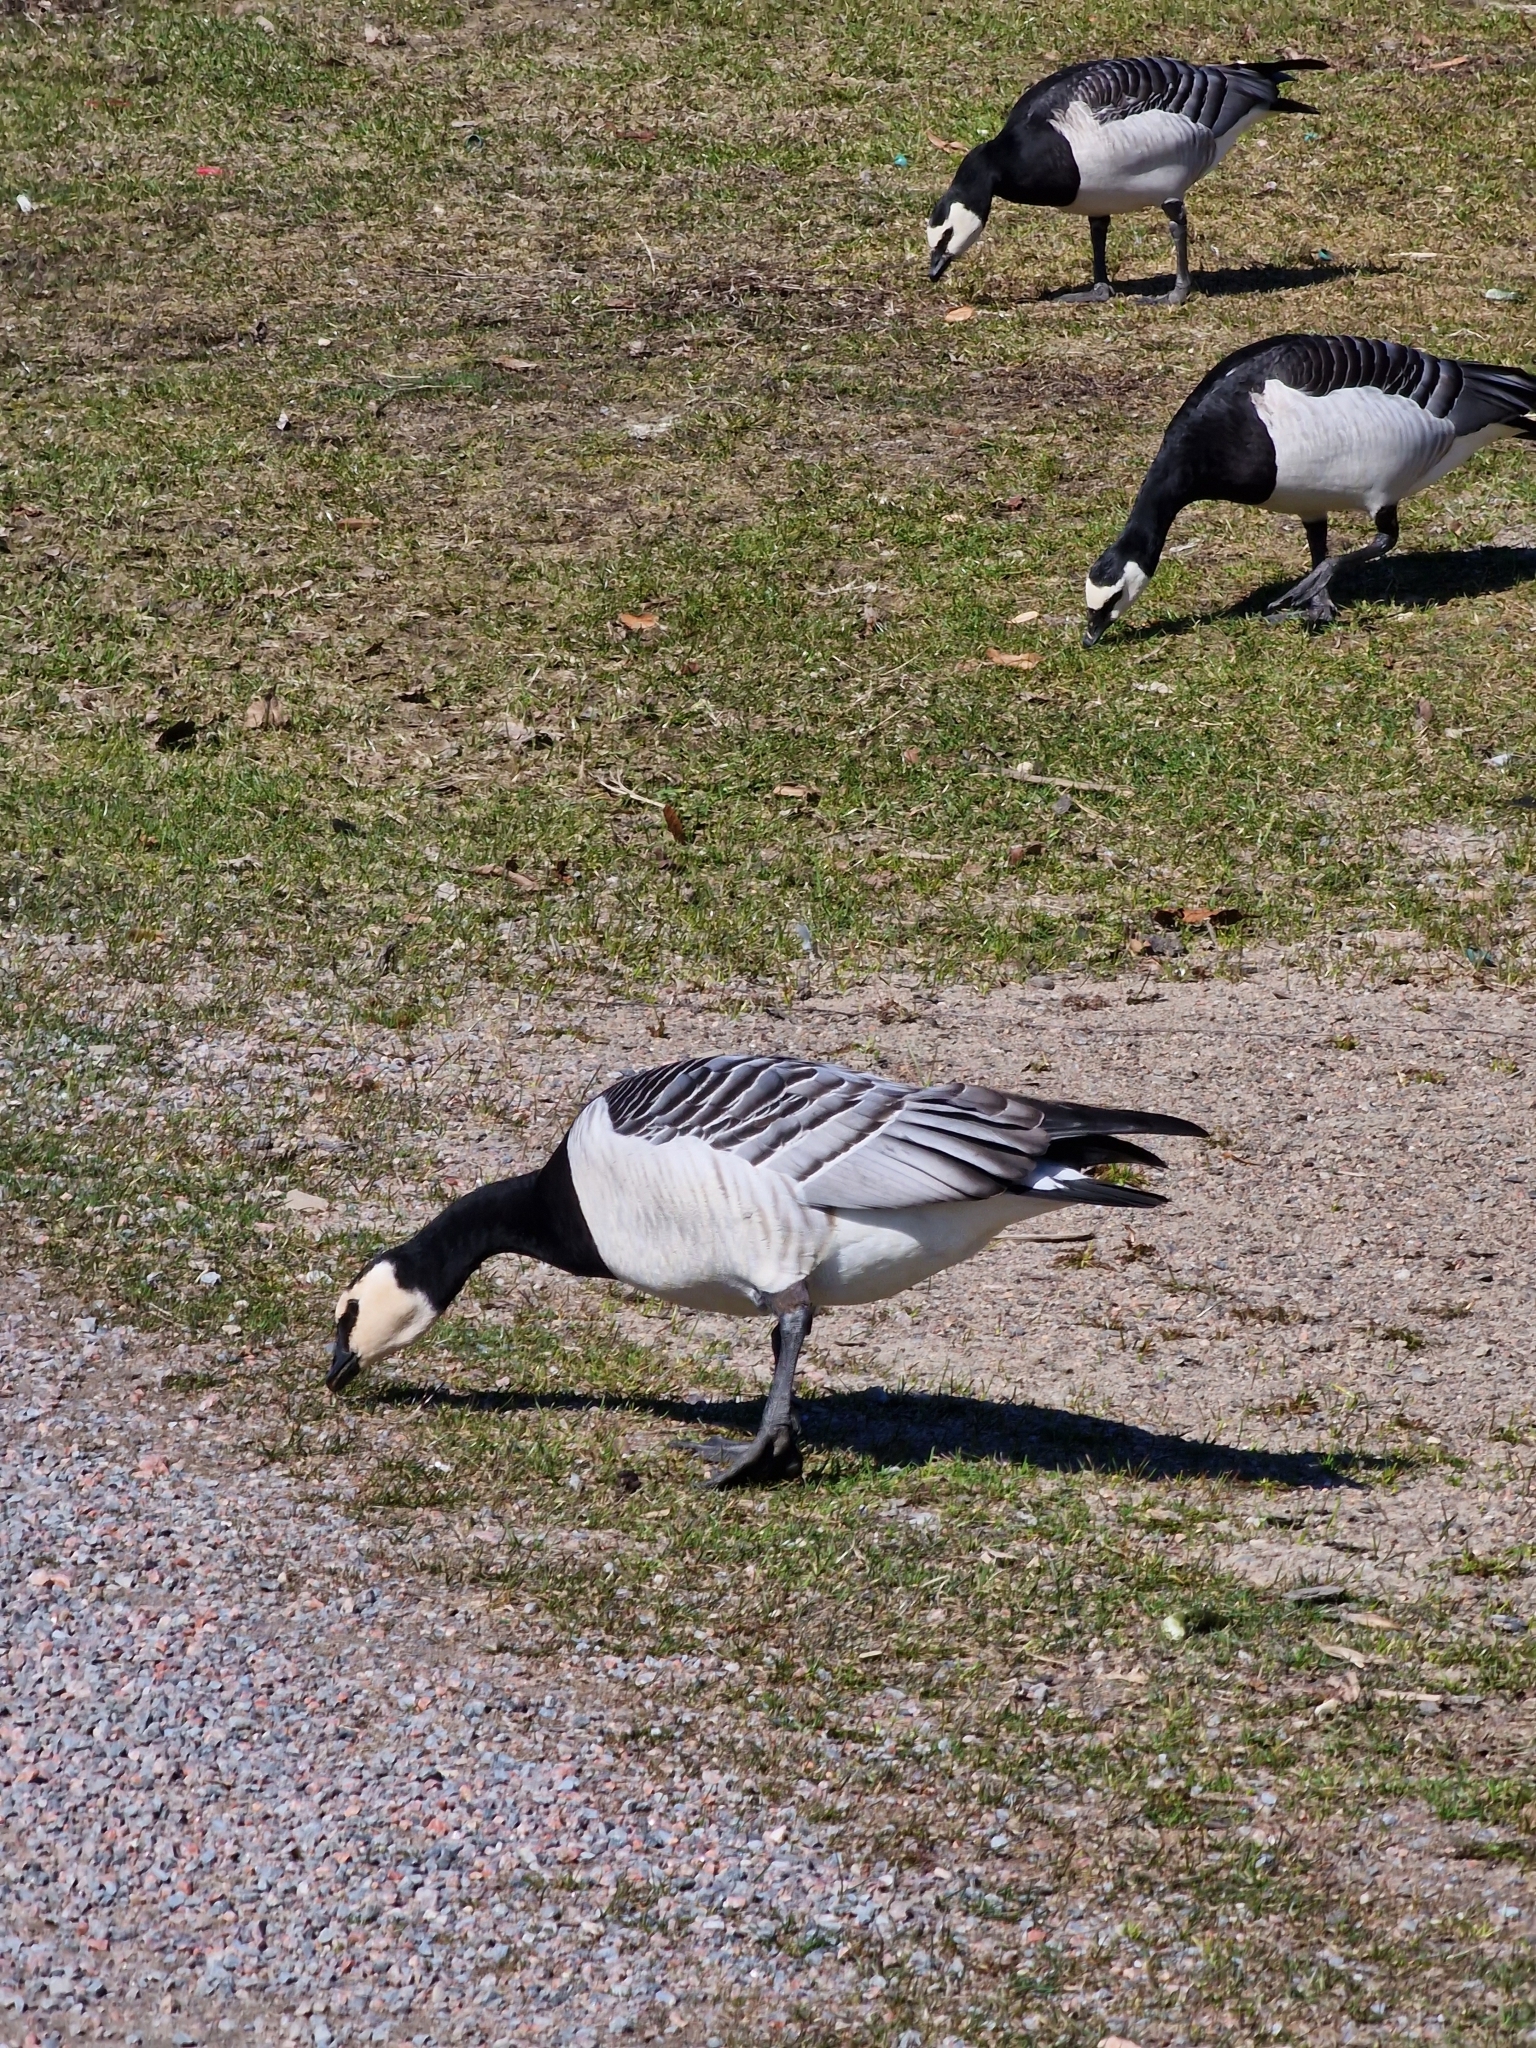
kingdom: Animalia
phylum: Chordata
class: Aves
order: Anseriformes
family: Anatidae
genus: Branta
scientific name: Branta leucopsis
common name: Barnacle goose
